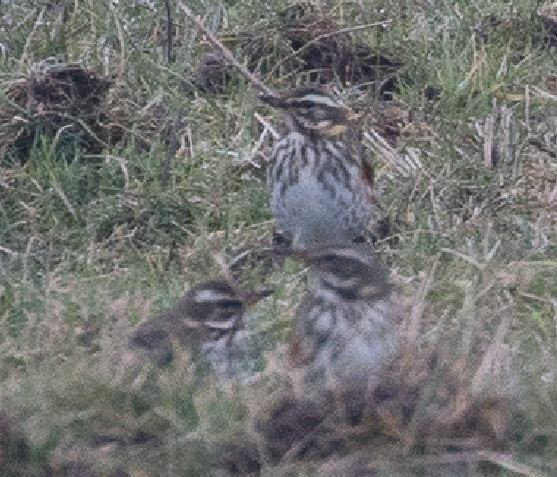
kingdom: Animalia
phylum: Chordata
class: Aves
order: Passeriformes
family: Turdidae
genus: Turdus
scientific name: Turdus iliacus
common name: Redwing
